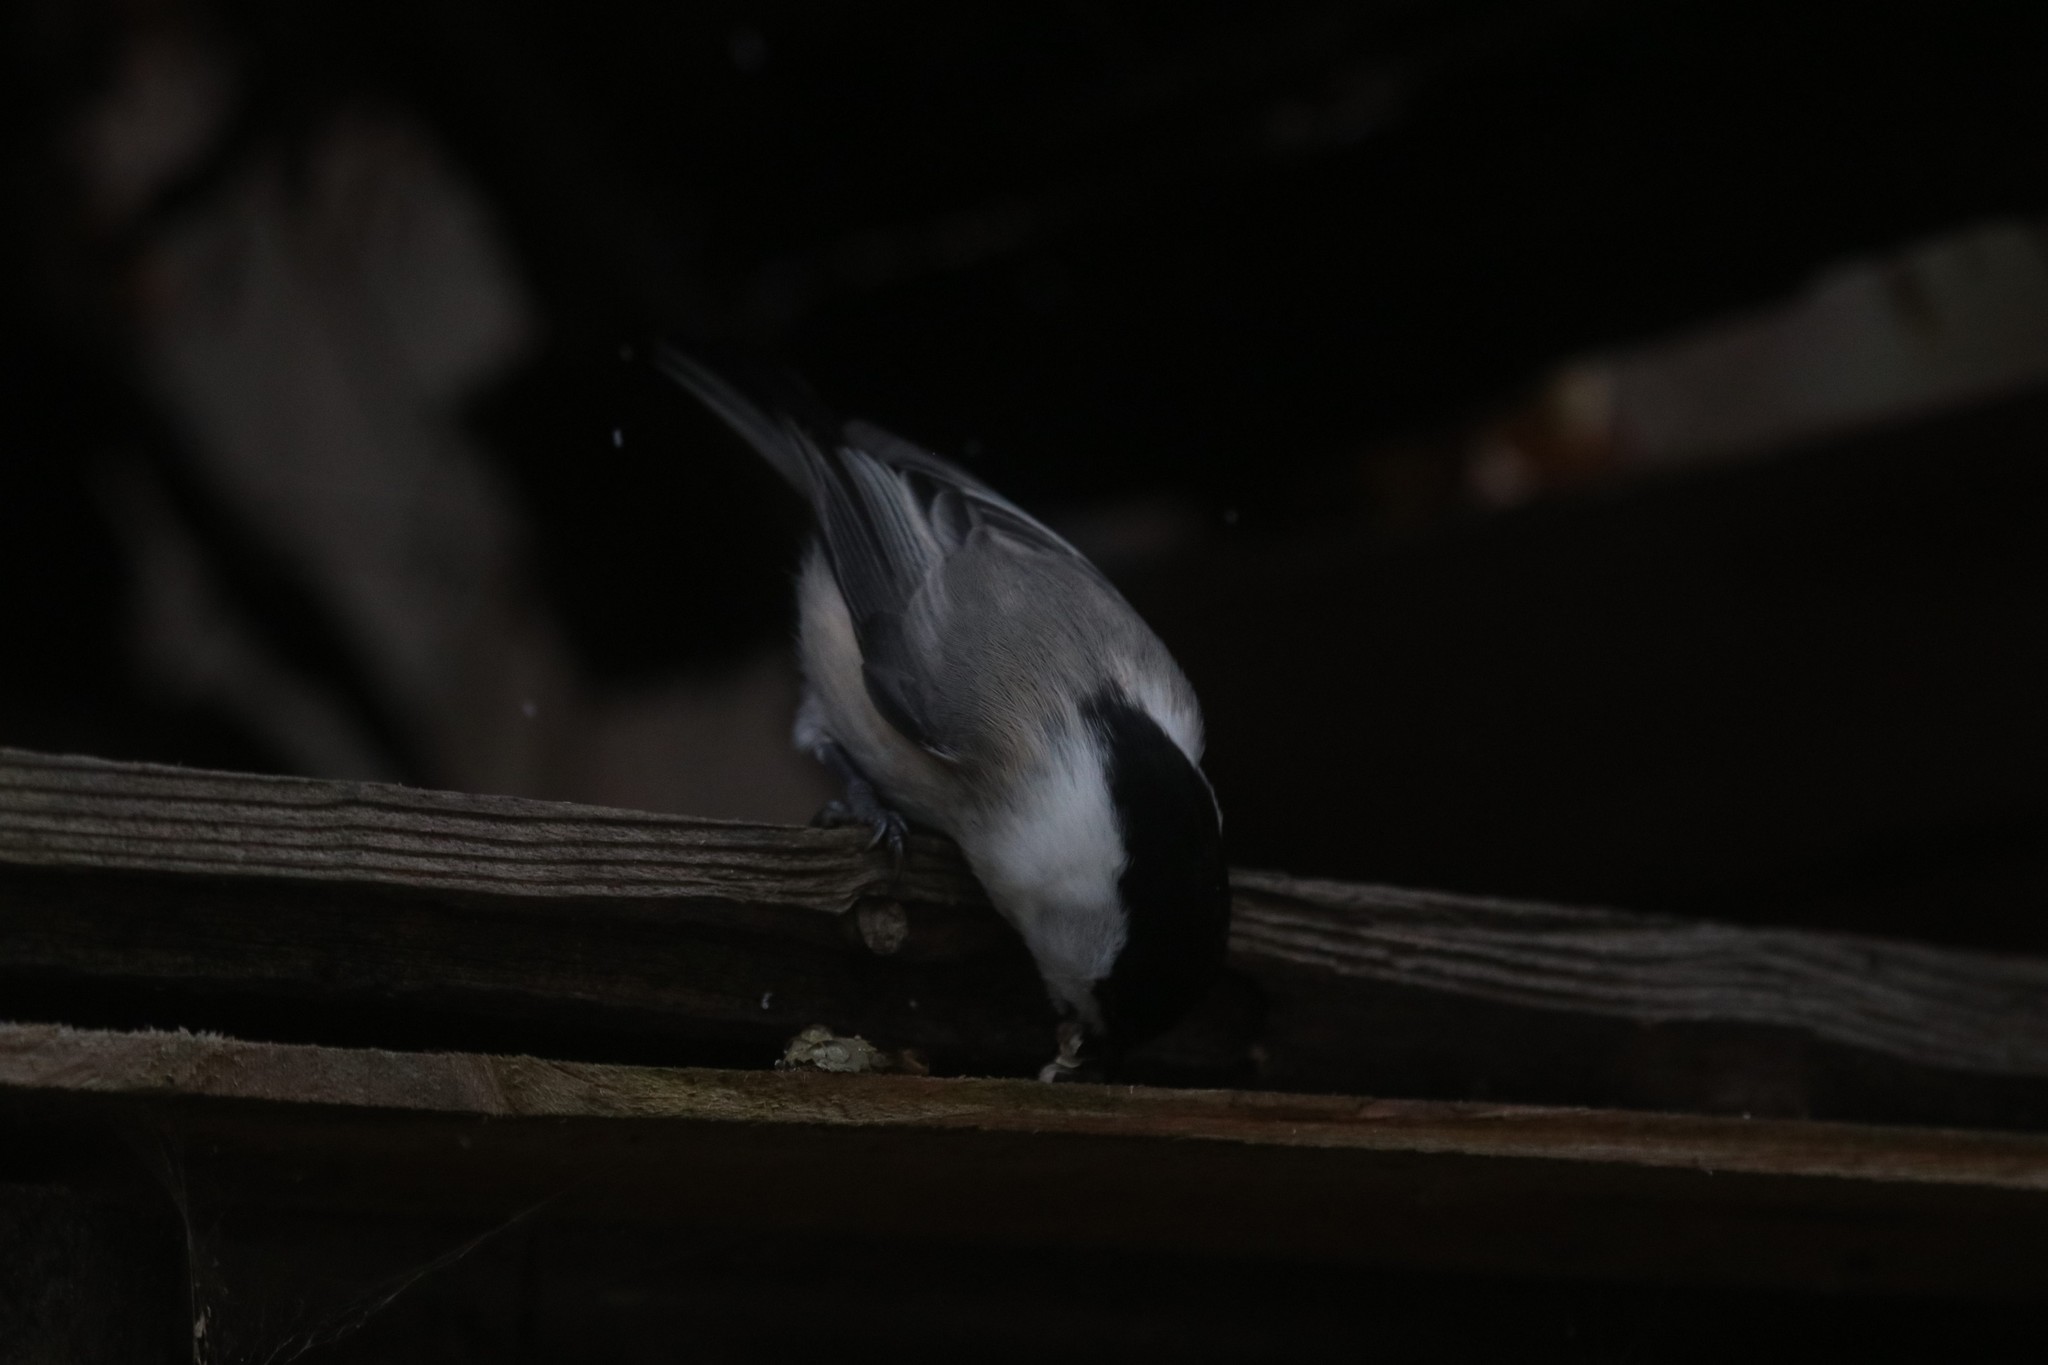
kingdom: Animalia
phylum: Chordata
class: Aves
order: Passeriformes
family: Paridae
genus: Poecile
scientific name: Poecile montanus
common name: Willow tit
